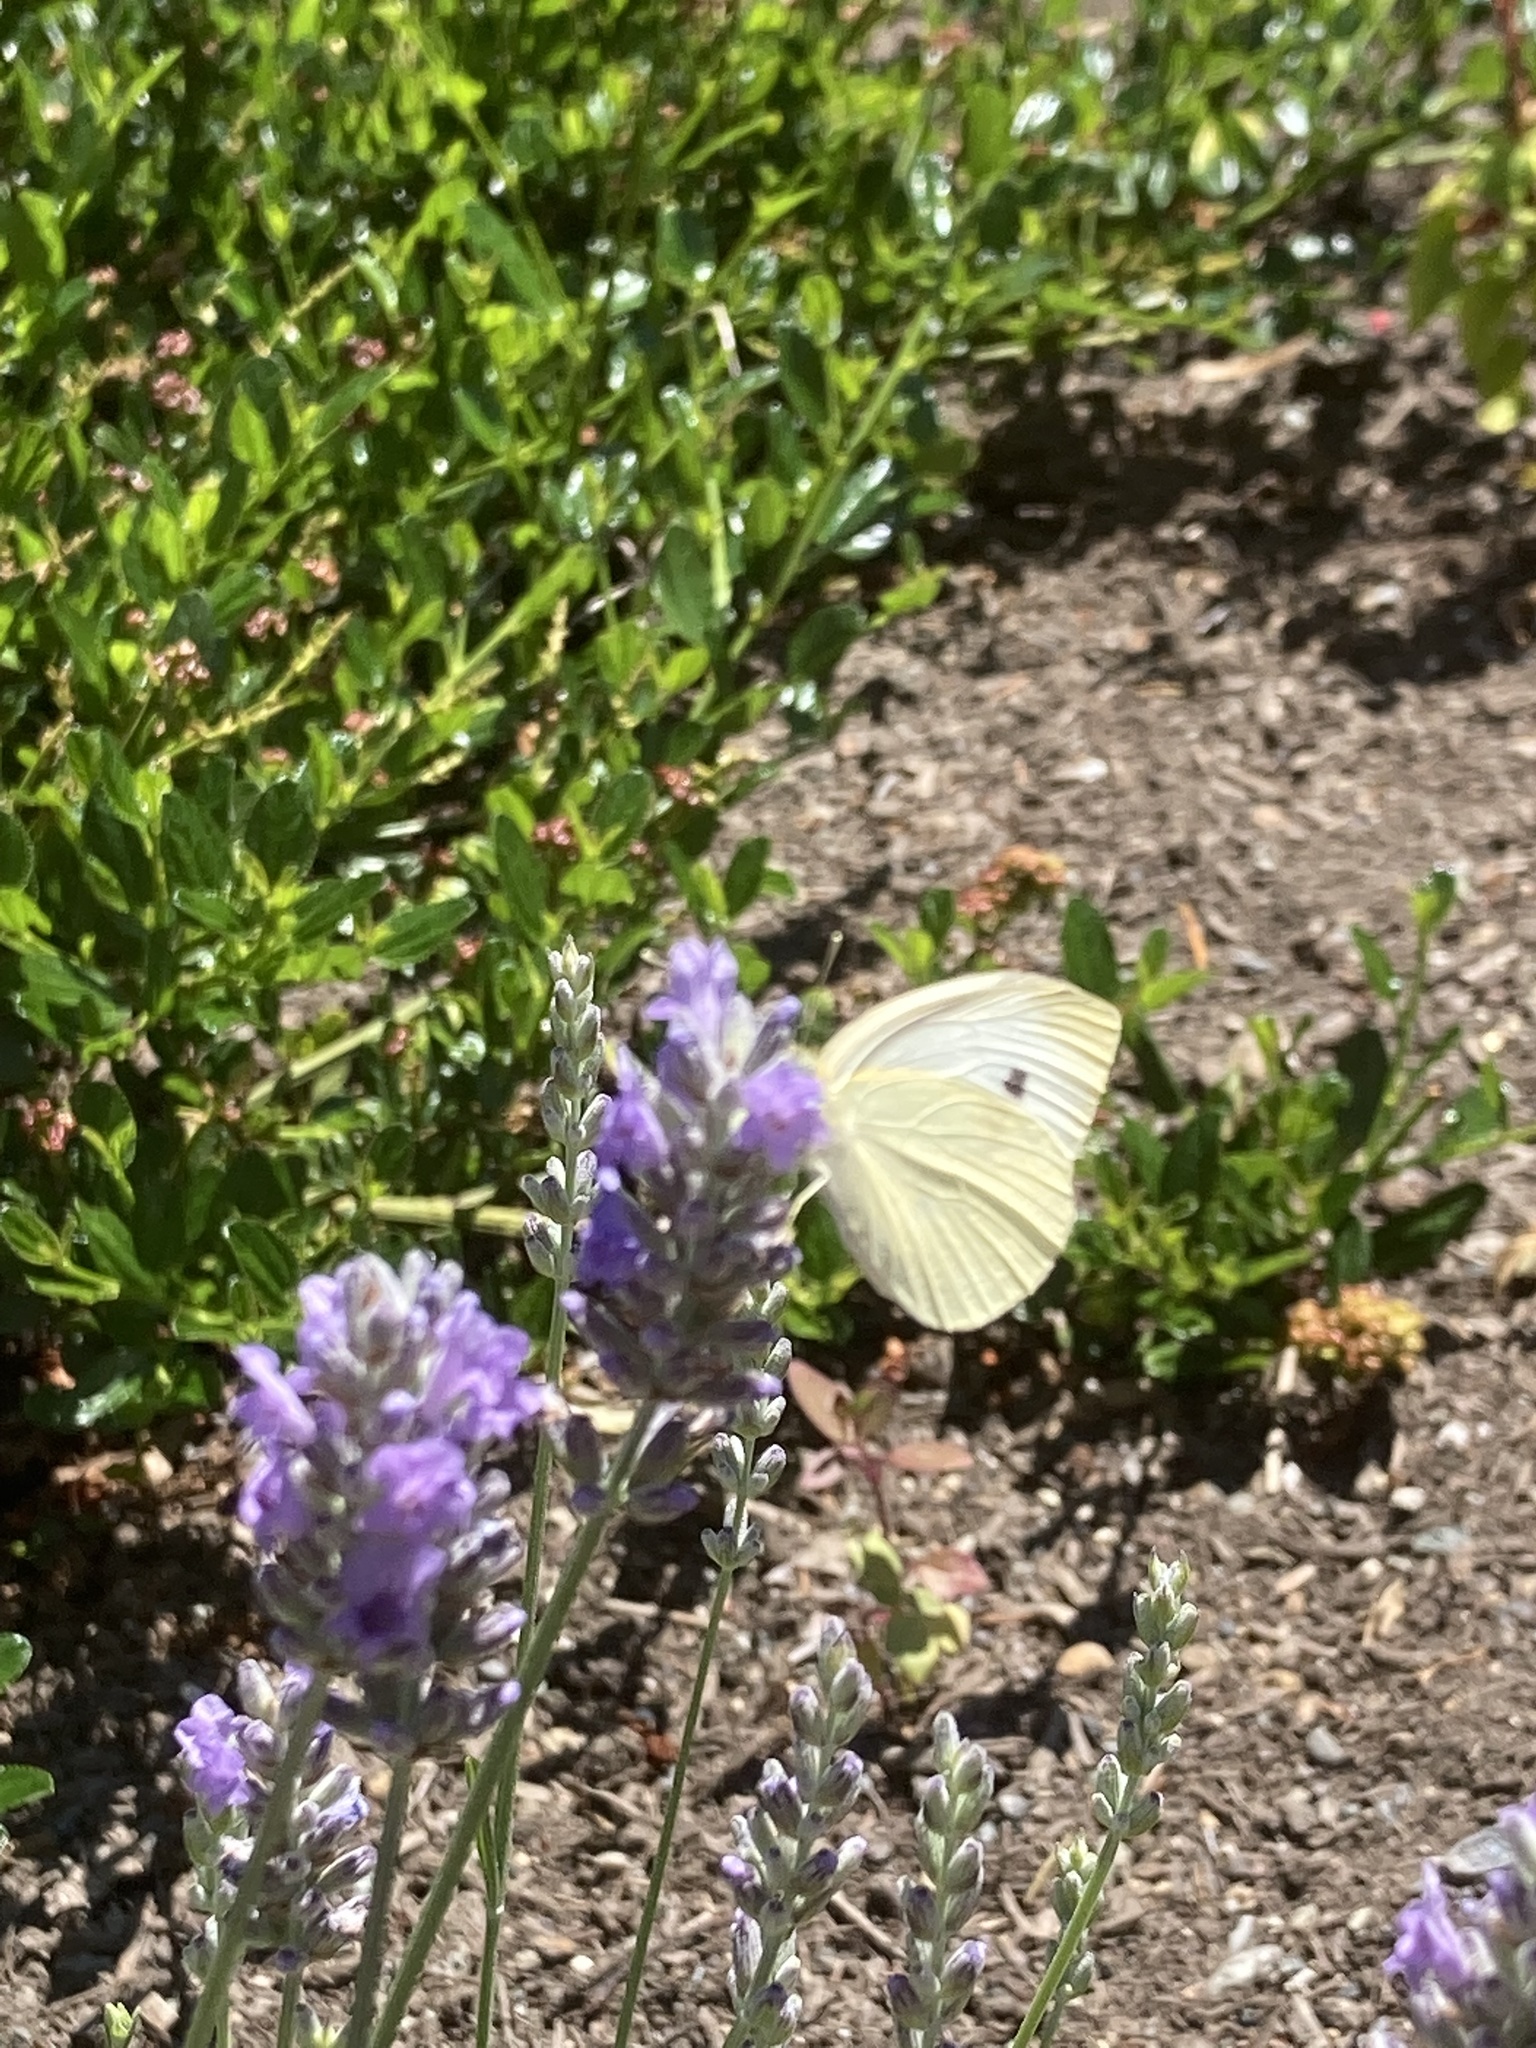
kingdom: Animalia
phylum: Arthropoda
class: Insecta
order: Lepidoptera
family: Pieridae
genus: Pieris
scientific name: Pieris rapae
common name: Small white
